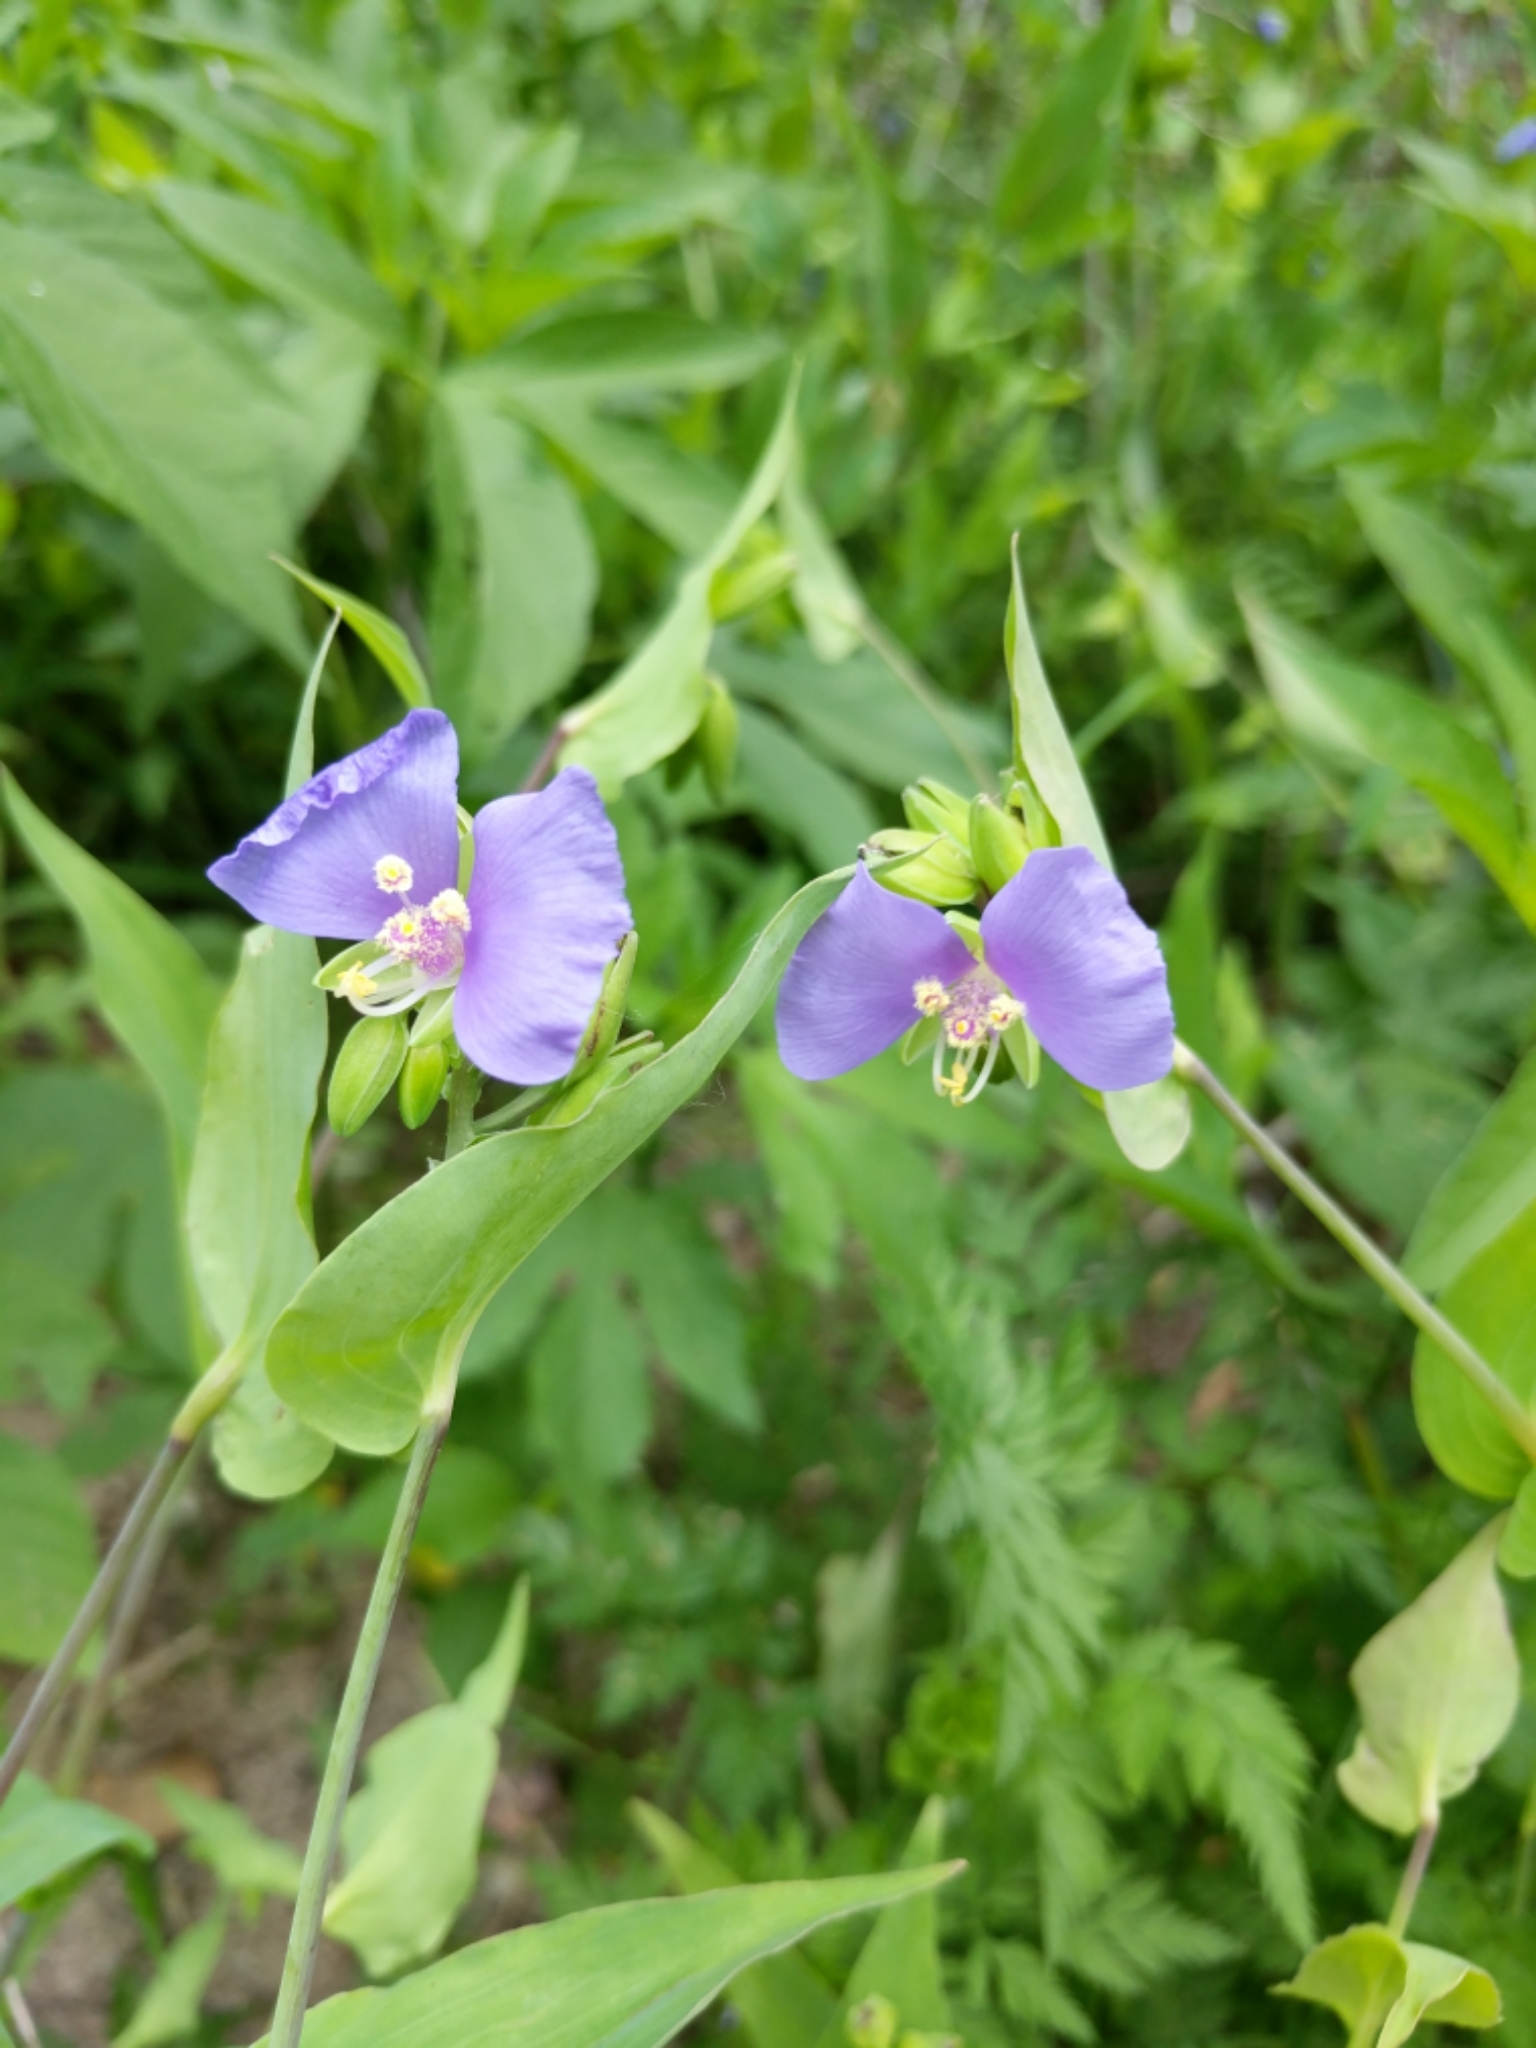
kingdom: Plantae
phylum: Tracheophyta
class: Liliopsida
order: Commelinales
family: Commelinaceae
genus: Tinantia
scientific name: Tinantia anomala
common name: False dayflower
